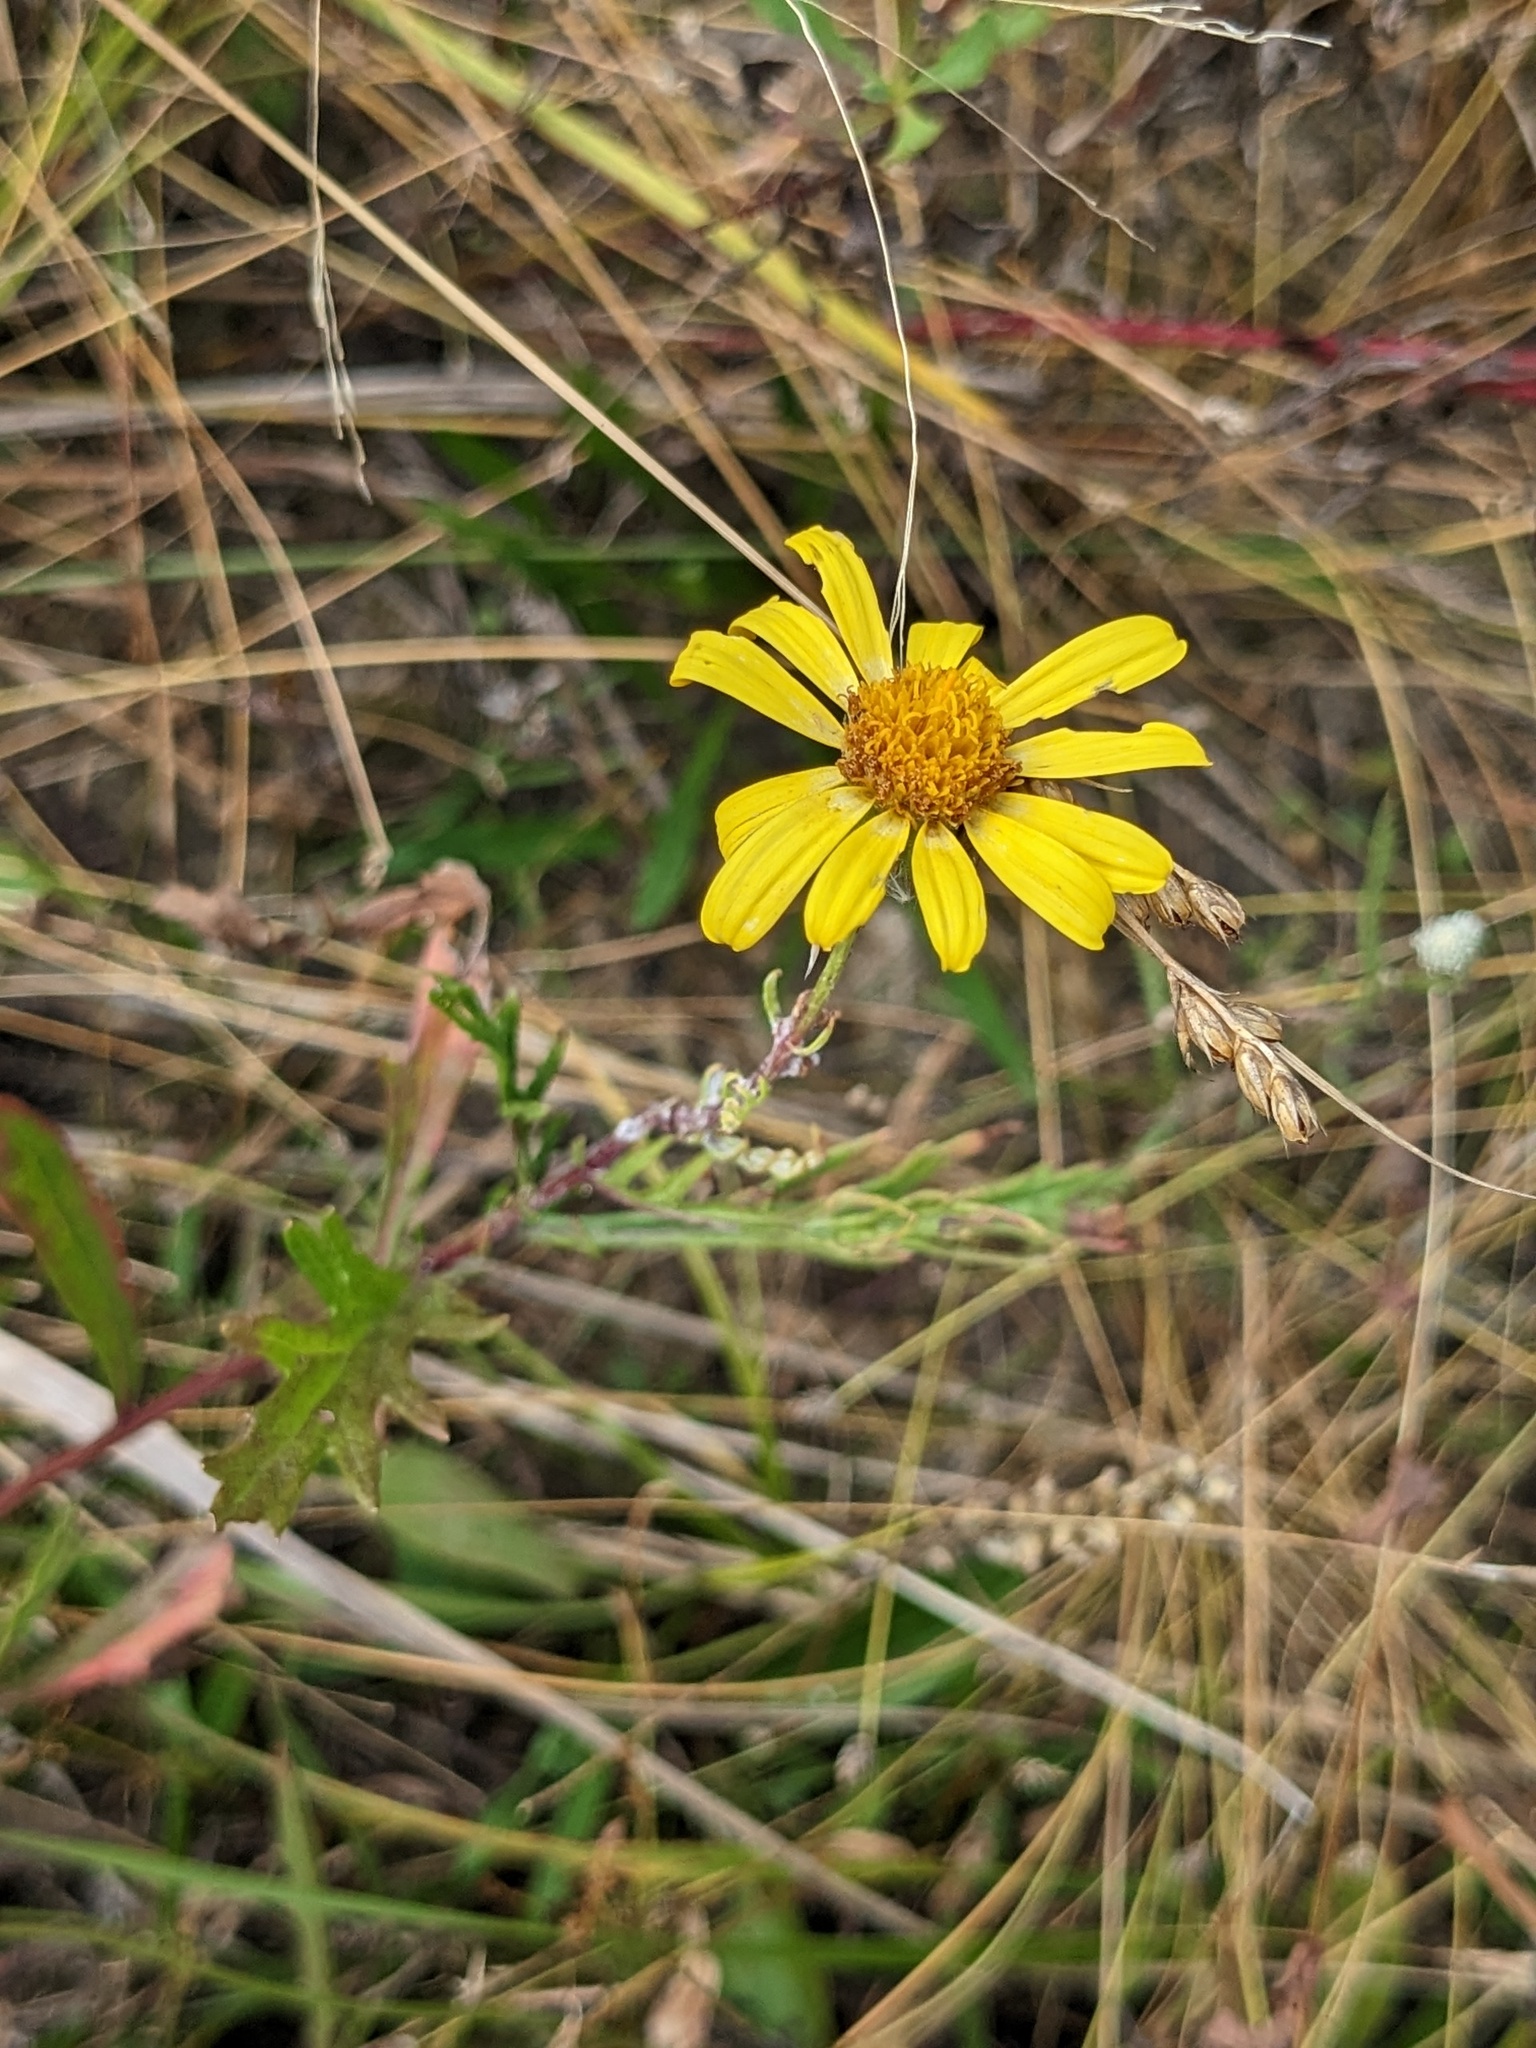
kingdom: Plantae
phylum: Tracheophyta
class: Magnoliopsida
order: Asterales
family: Asteraceae
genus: Jacobaea
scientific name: Jacobaea erucifolia
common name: Hoary ragwort
